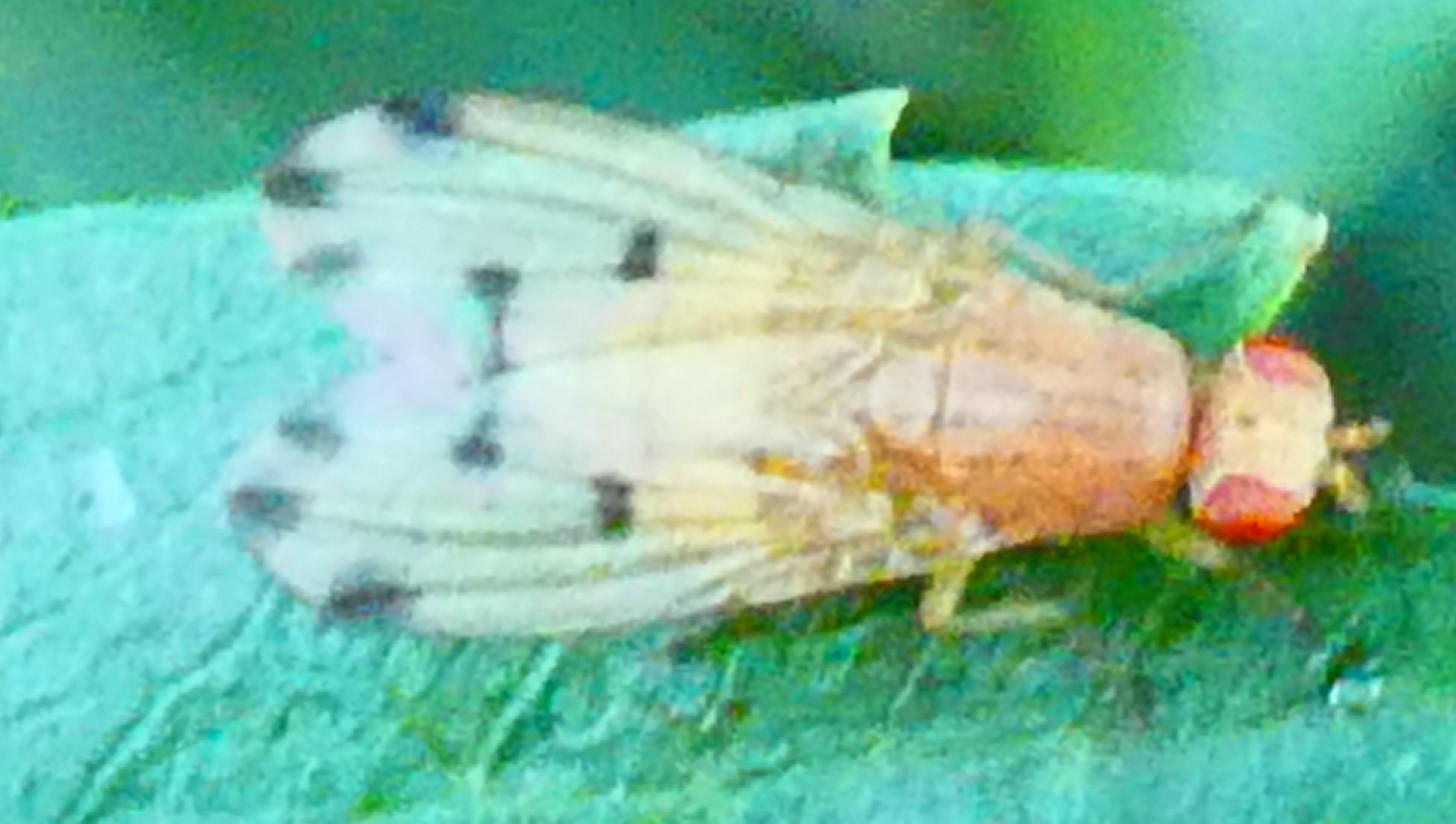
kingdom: Animalia
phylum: Arthropoda
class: Insecta
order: Diptera
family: Lauxaniidae
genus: Meiosimyza
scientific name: Meiosimyza decempunctata
